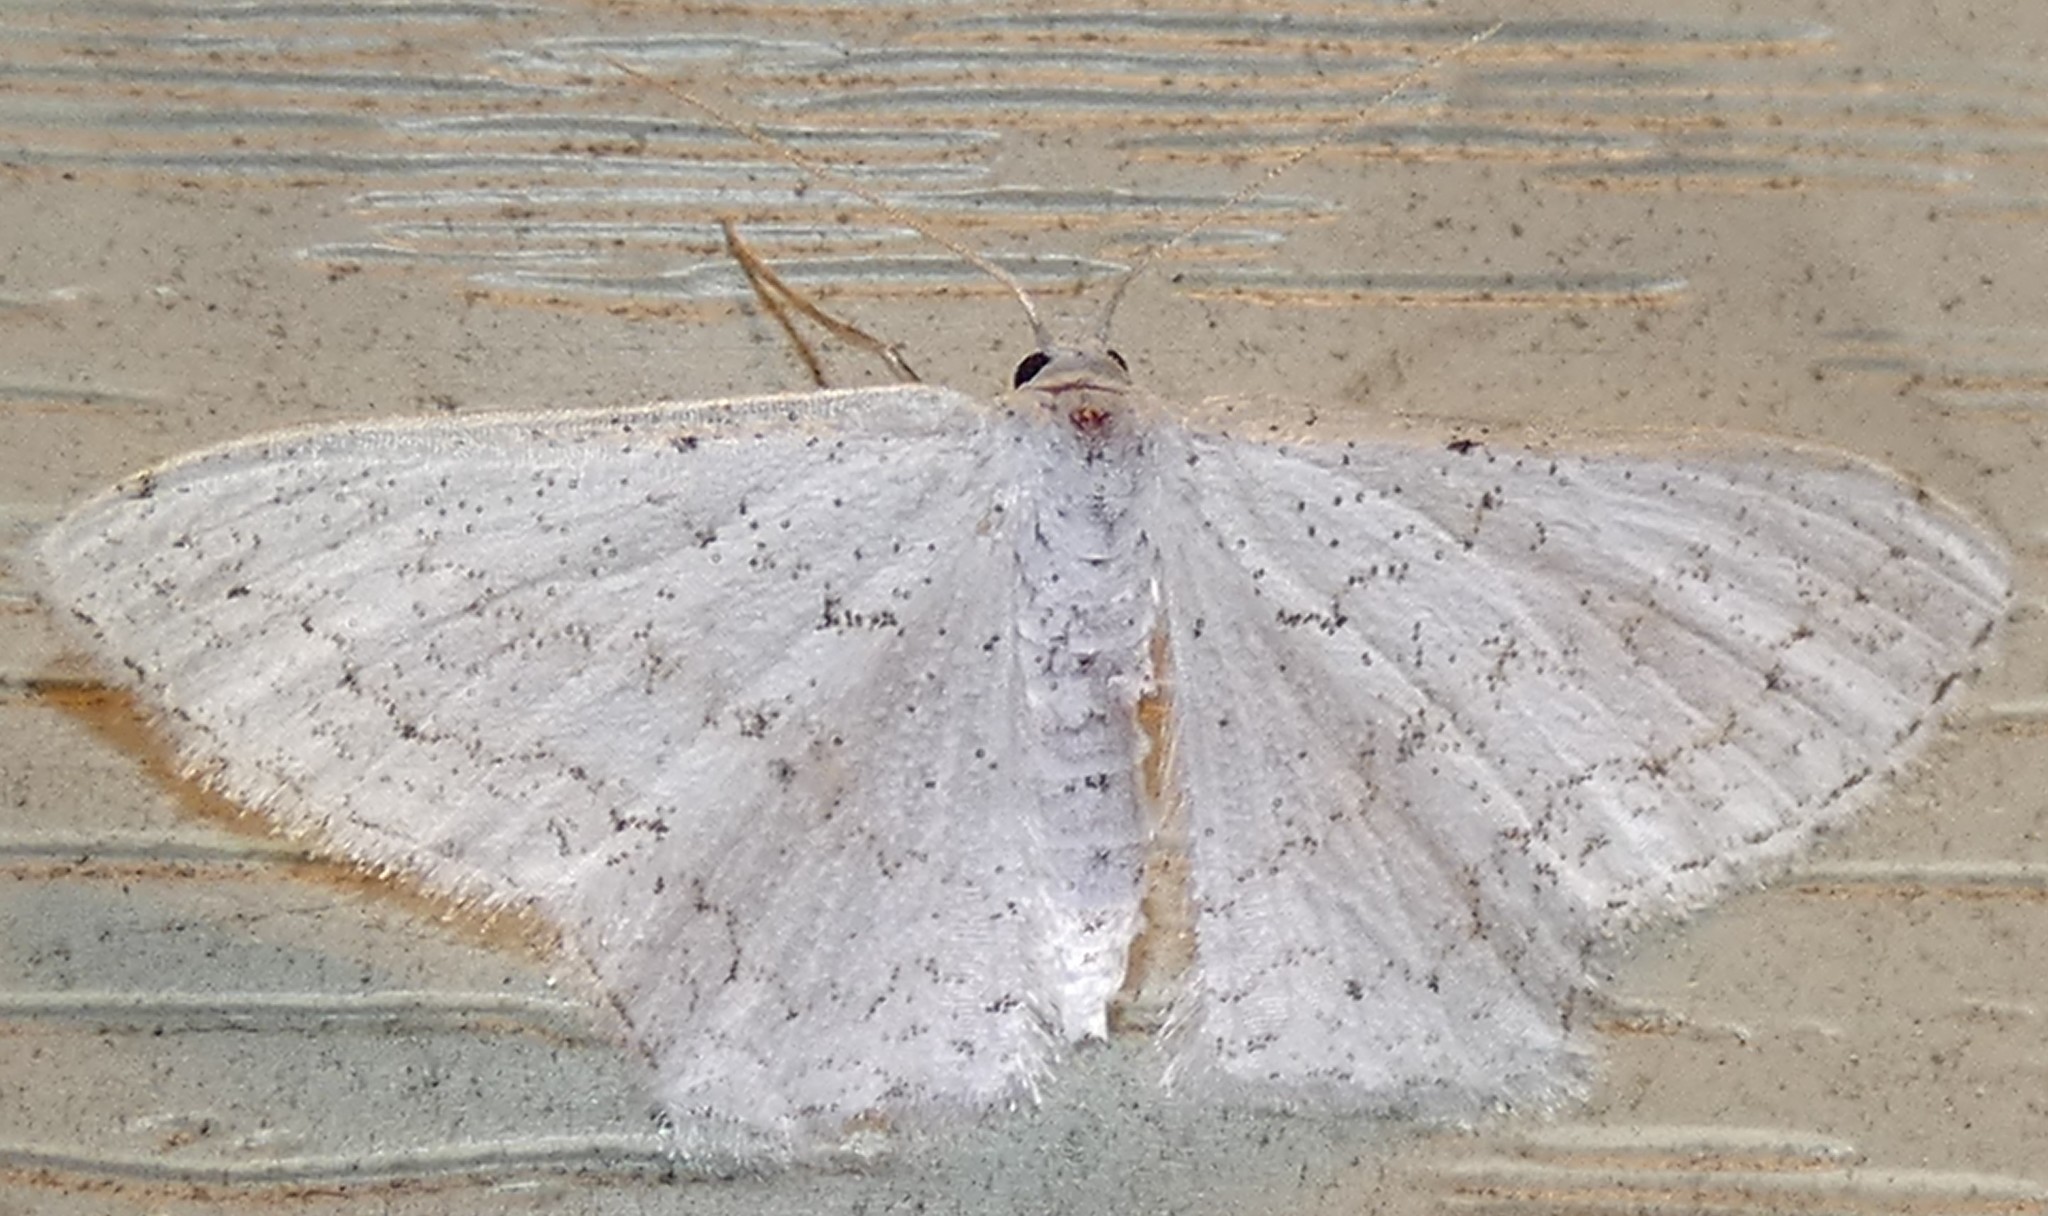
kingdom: Animalia
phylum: Arthropoda
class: Insecta
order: Lepidoptera
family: Geometridae
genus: Idaea
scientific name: Idaea tacturata
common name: Dot-lined wave
